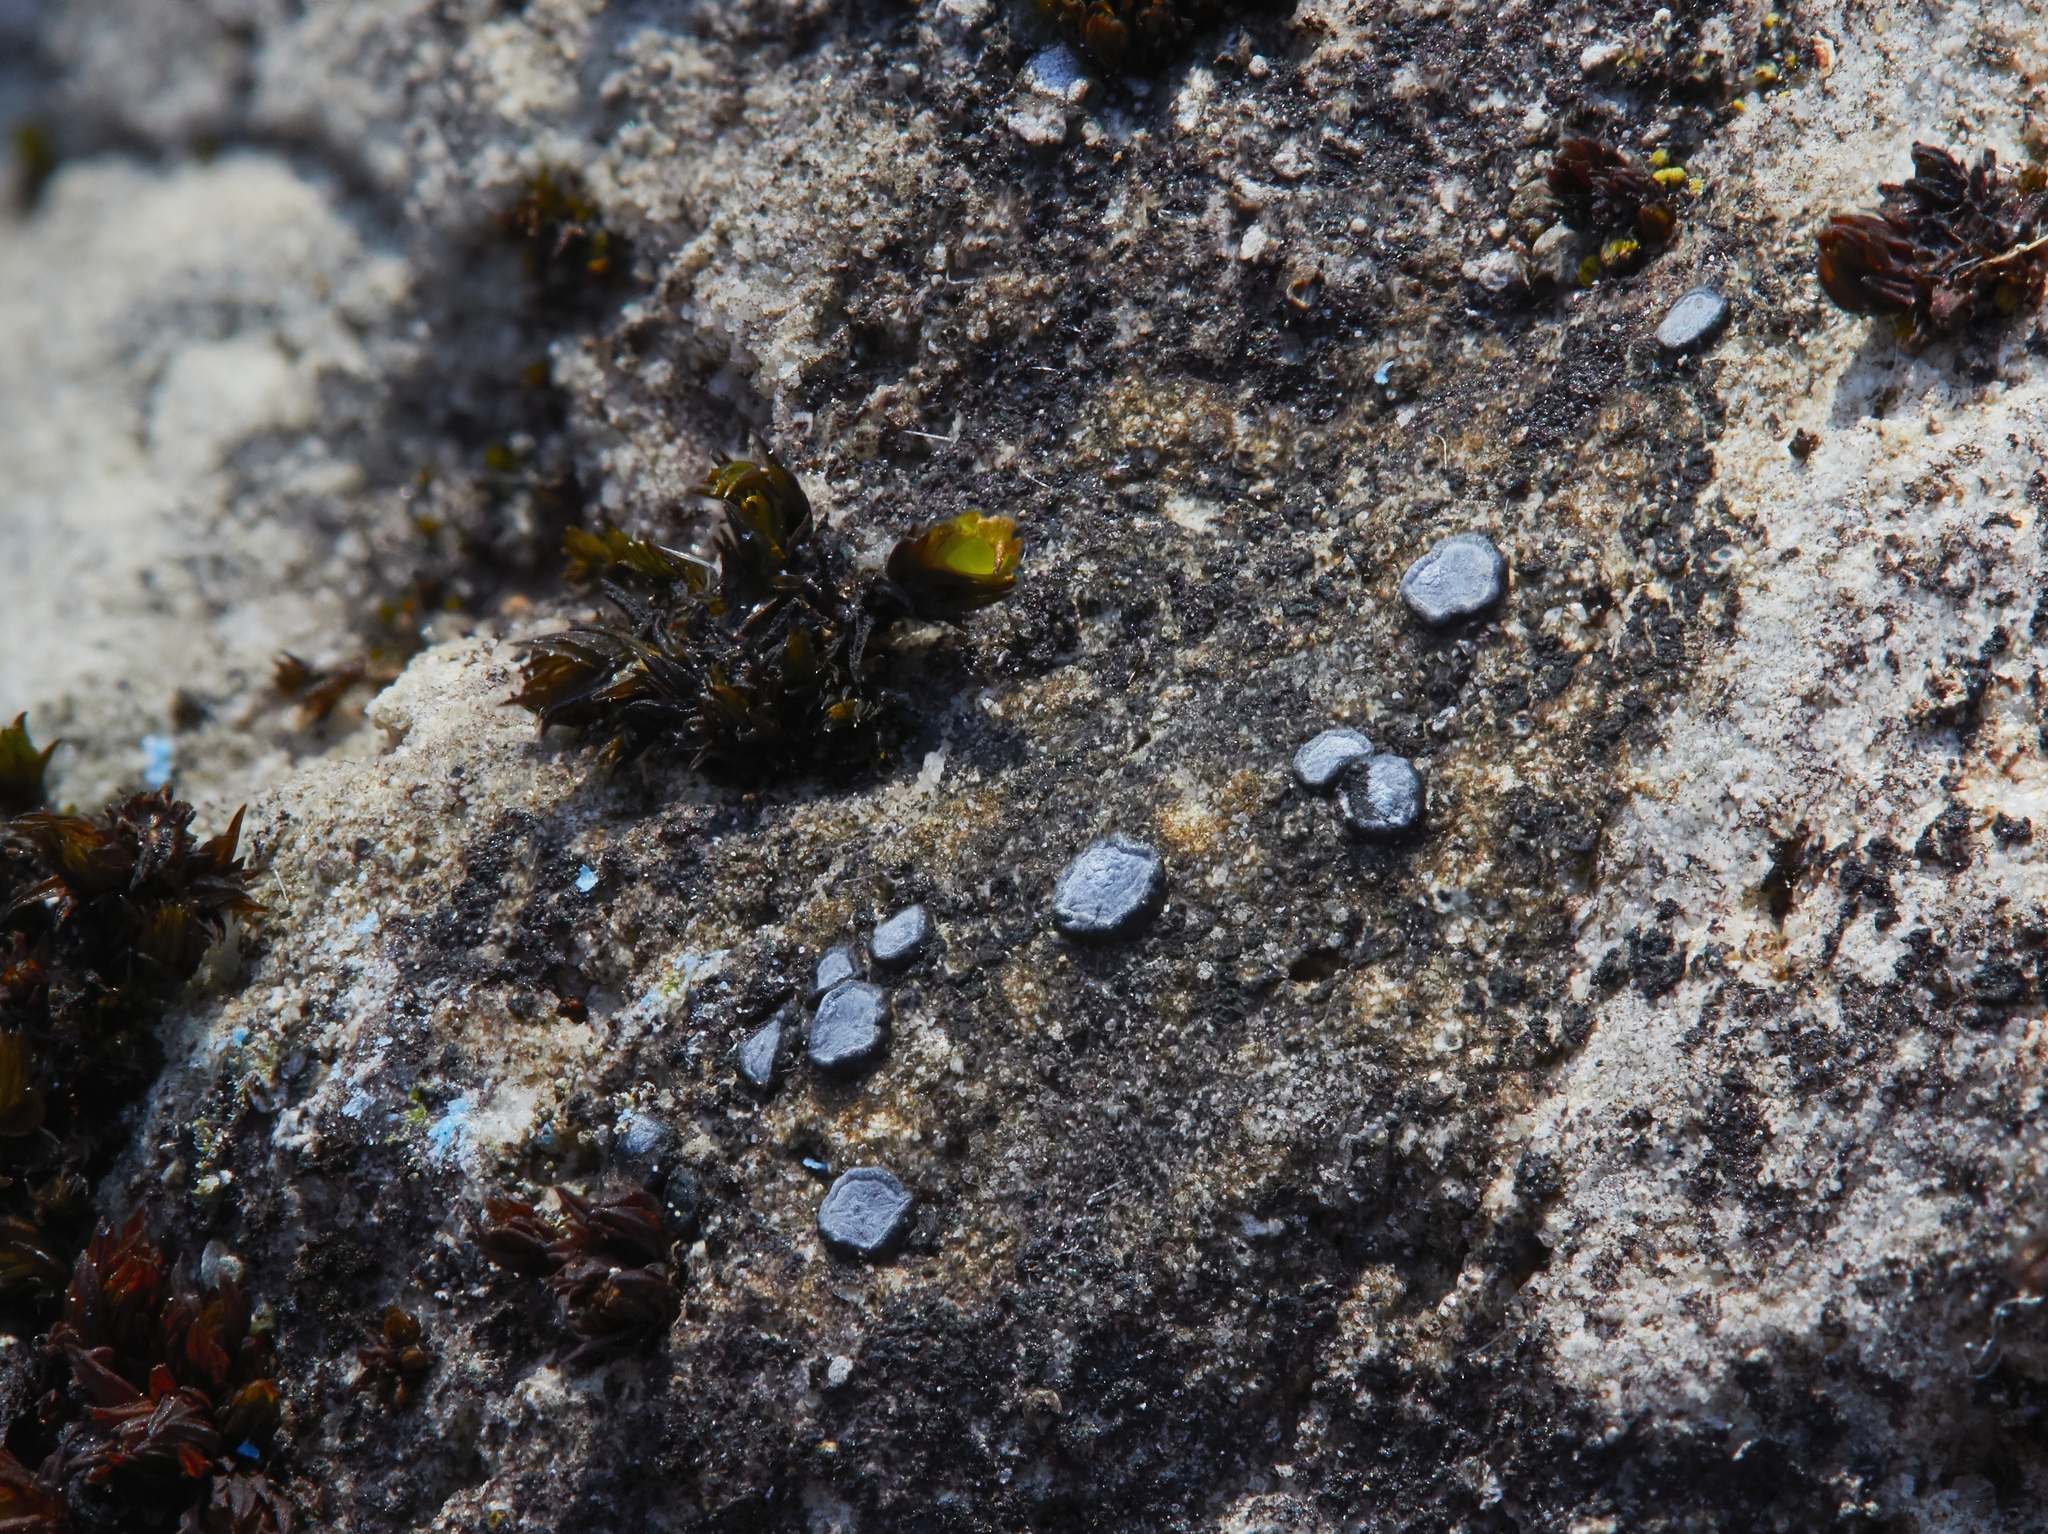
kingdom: Fungi
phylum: Ascomycota
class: Lecanoromycetes
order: Acarosporales
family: Acarosporaceae
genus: Sarcogyne
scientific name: Sarcogyne regularis
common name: Frosted grain-spored lichen
